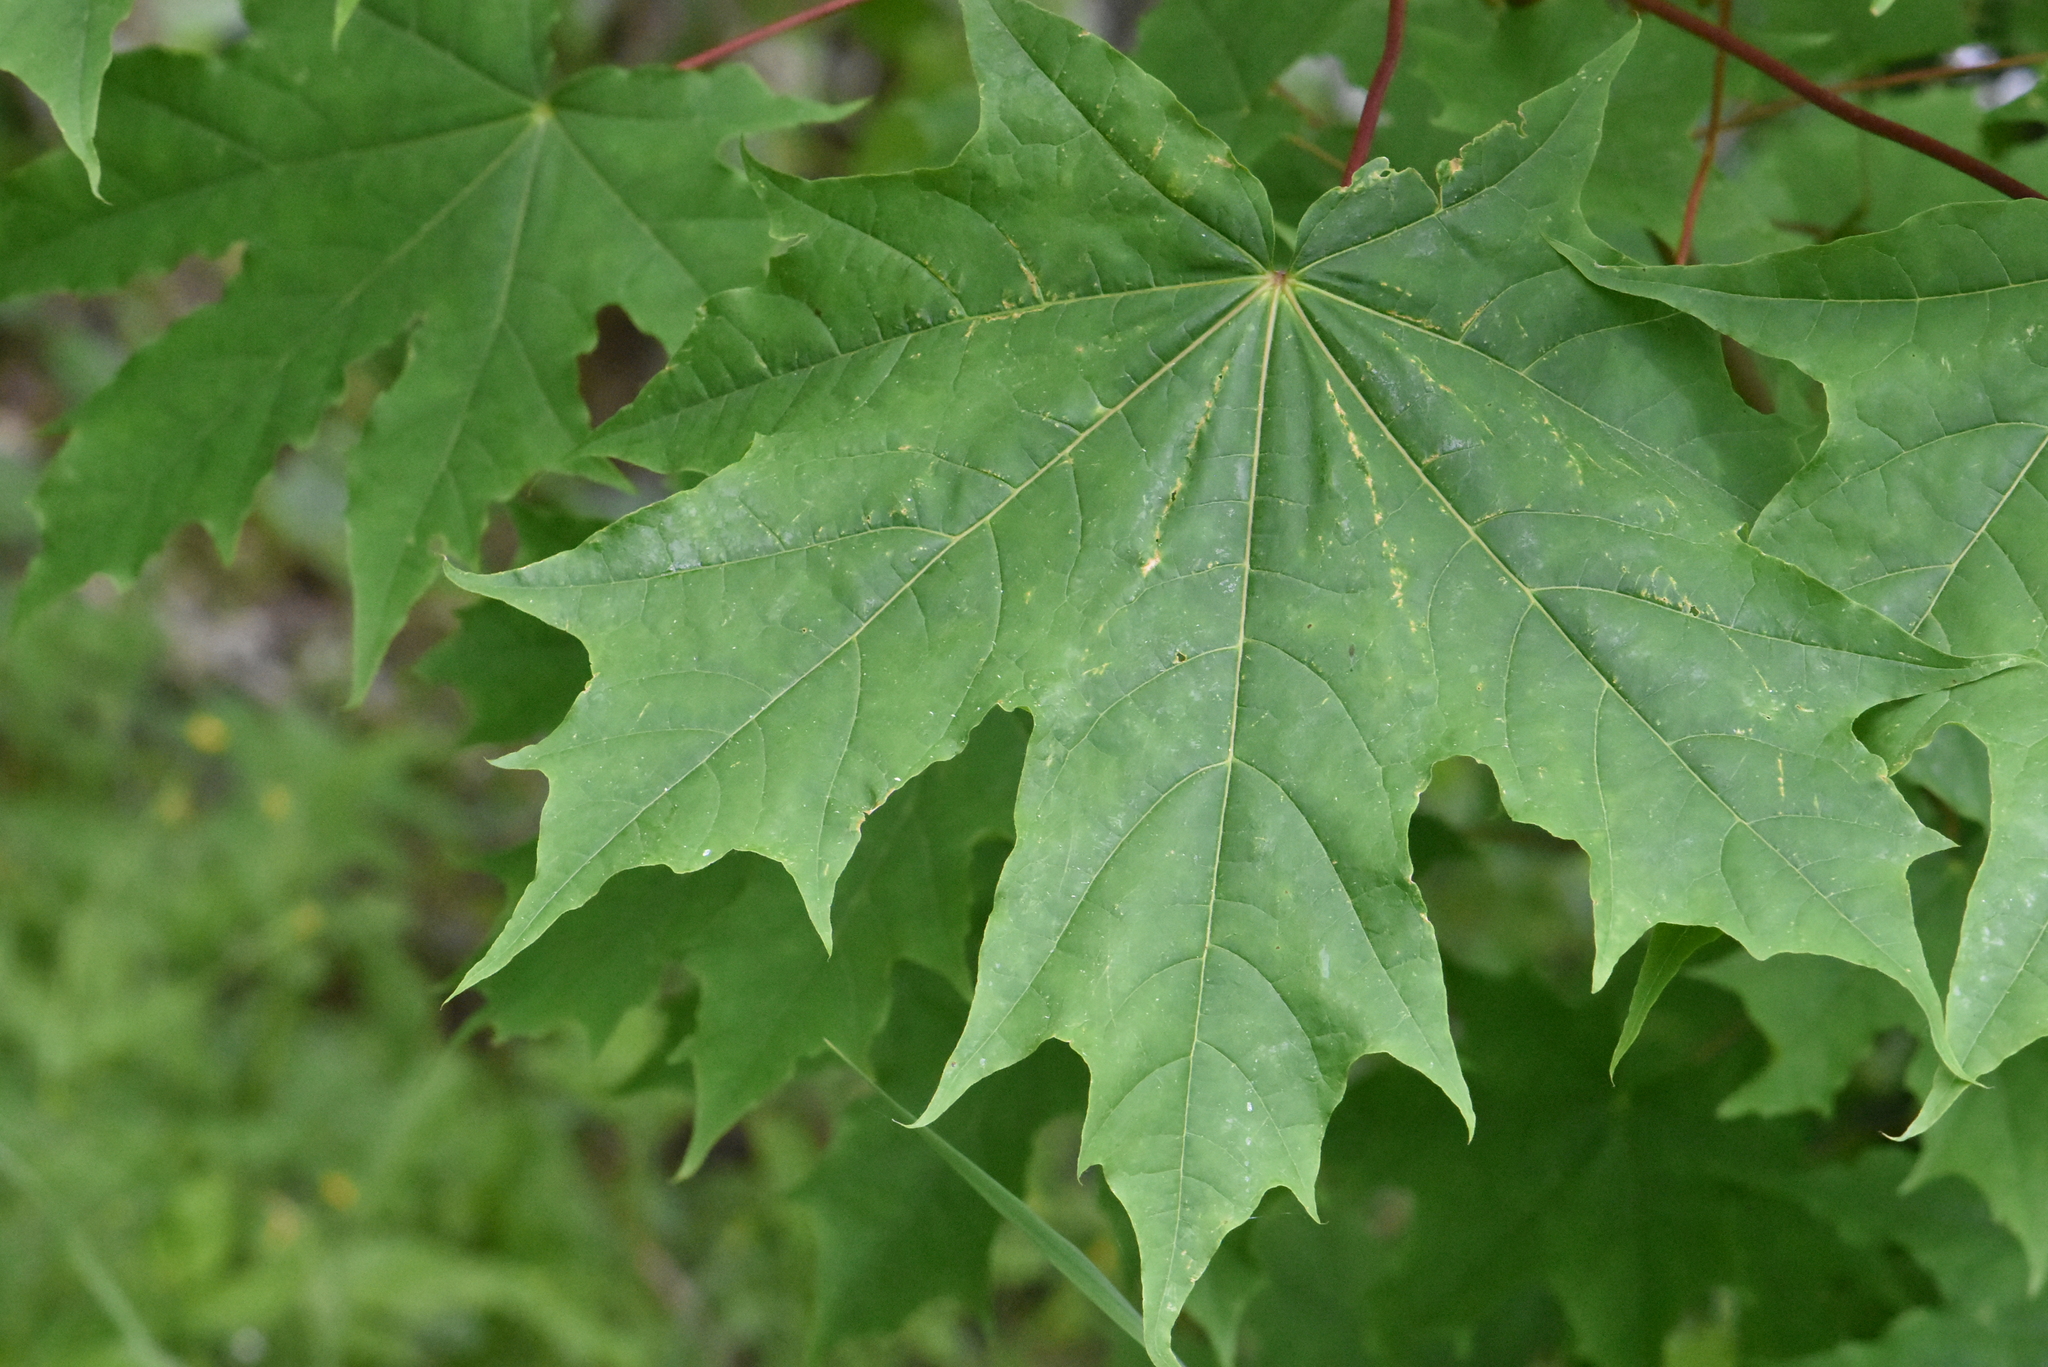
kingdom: Plantae
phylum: Tracheophyta
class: Magnoliopsida
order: Sapindales
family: Sapindaceae
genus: Acer
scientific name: Acer platanoides
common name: Norway maple
